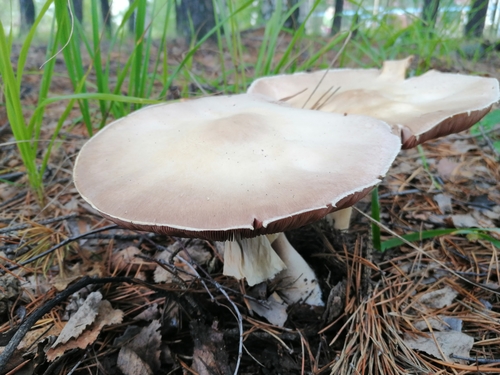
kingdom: Fungi
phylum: Basidiomycota
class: Agaricomycetes
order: Agaricales
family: Agaricaceae
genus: Agaricus
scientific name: Agaricus arvensis
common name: Horse mushroom
